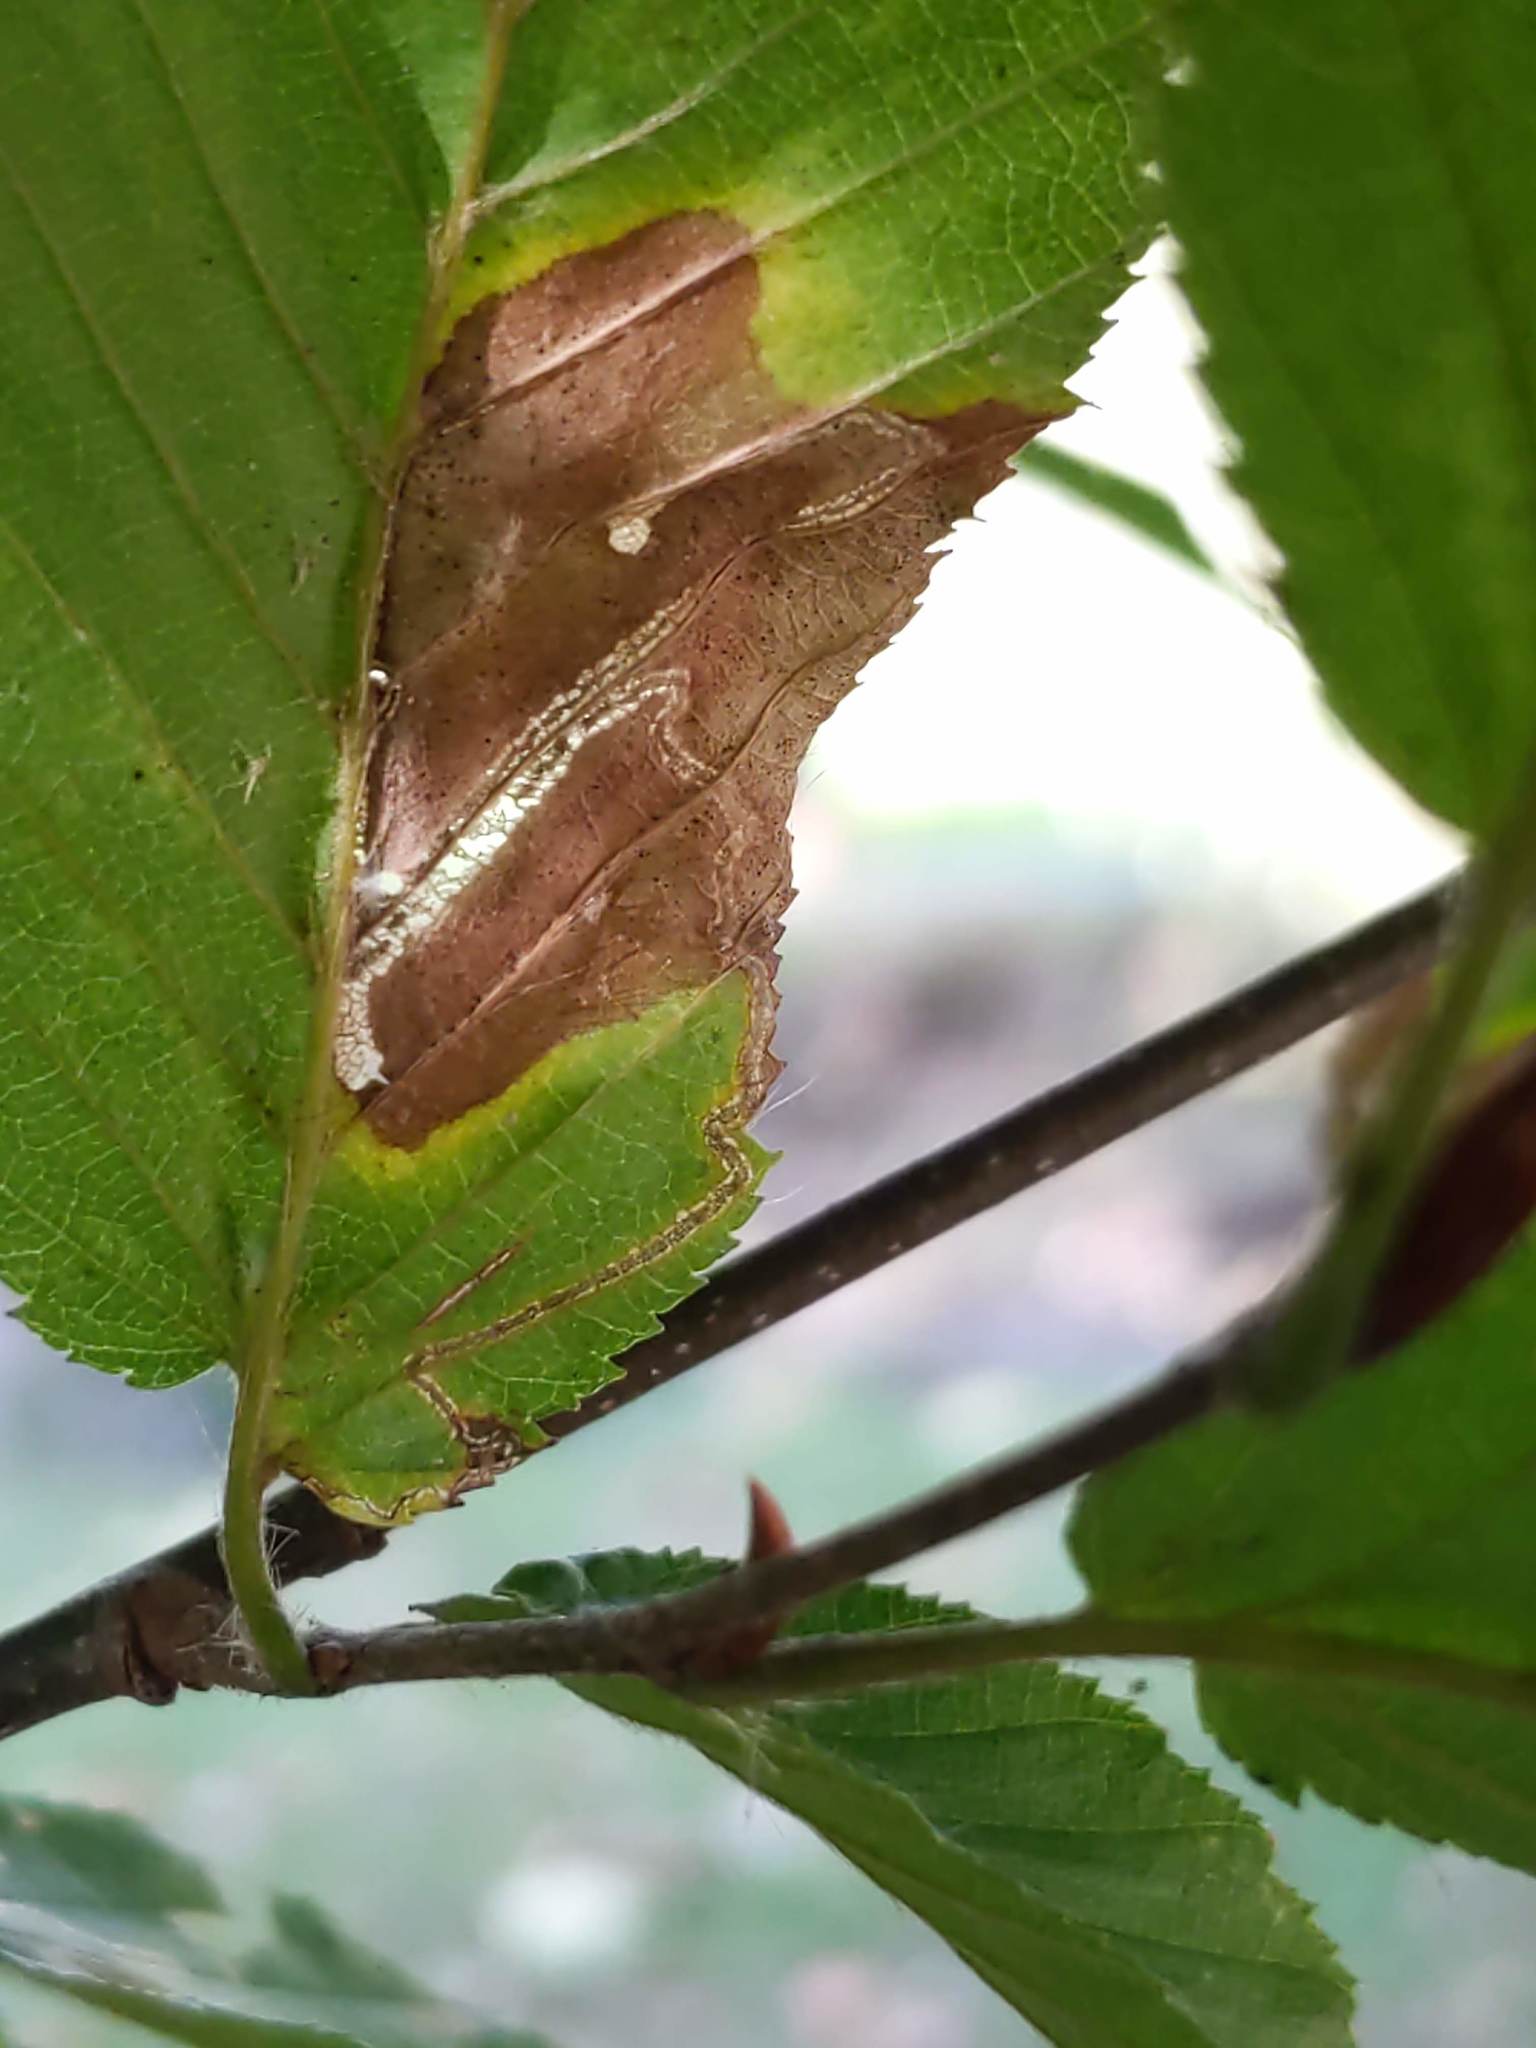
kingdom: Animalia
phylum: Arthropoda
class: Insecta
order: Lepidoptera
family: Nepticulidae
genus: Stigmella
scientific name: Stigmella betulicola
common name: Common birch pigmy
